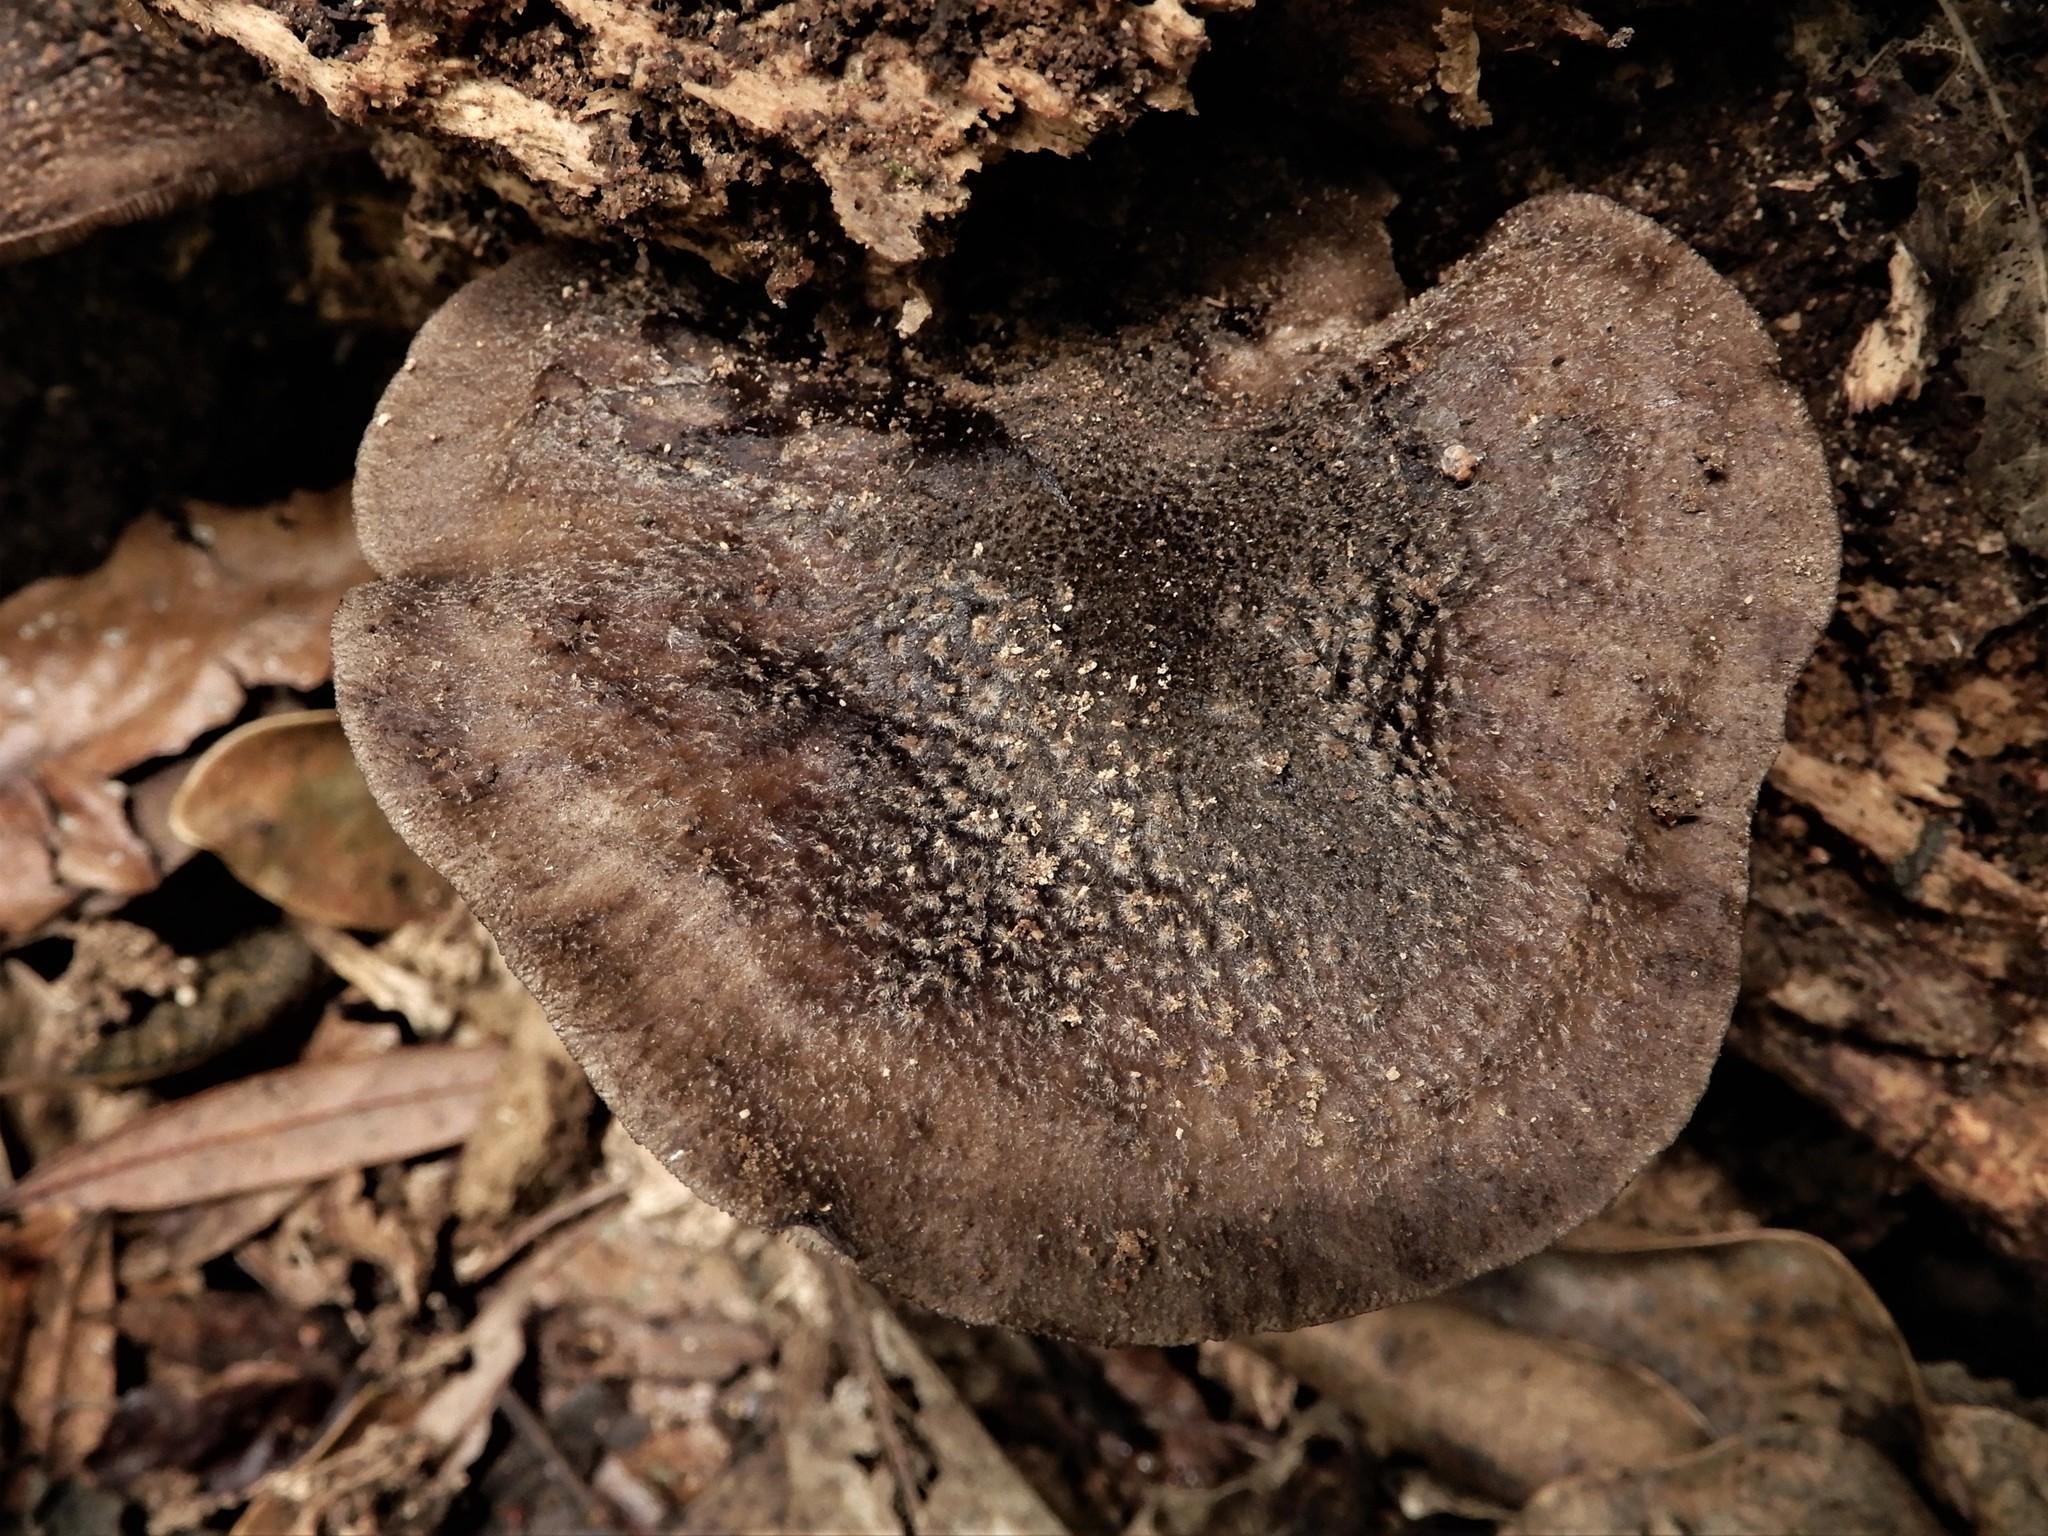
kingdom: Fungi
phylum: Basidiomycota
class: Agaricomycetes
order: Agaricales
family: Pluteaceae
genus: Pluteus
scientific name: Pluteus microspermus
